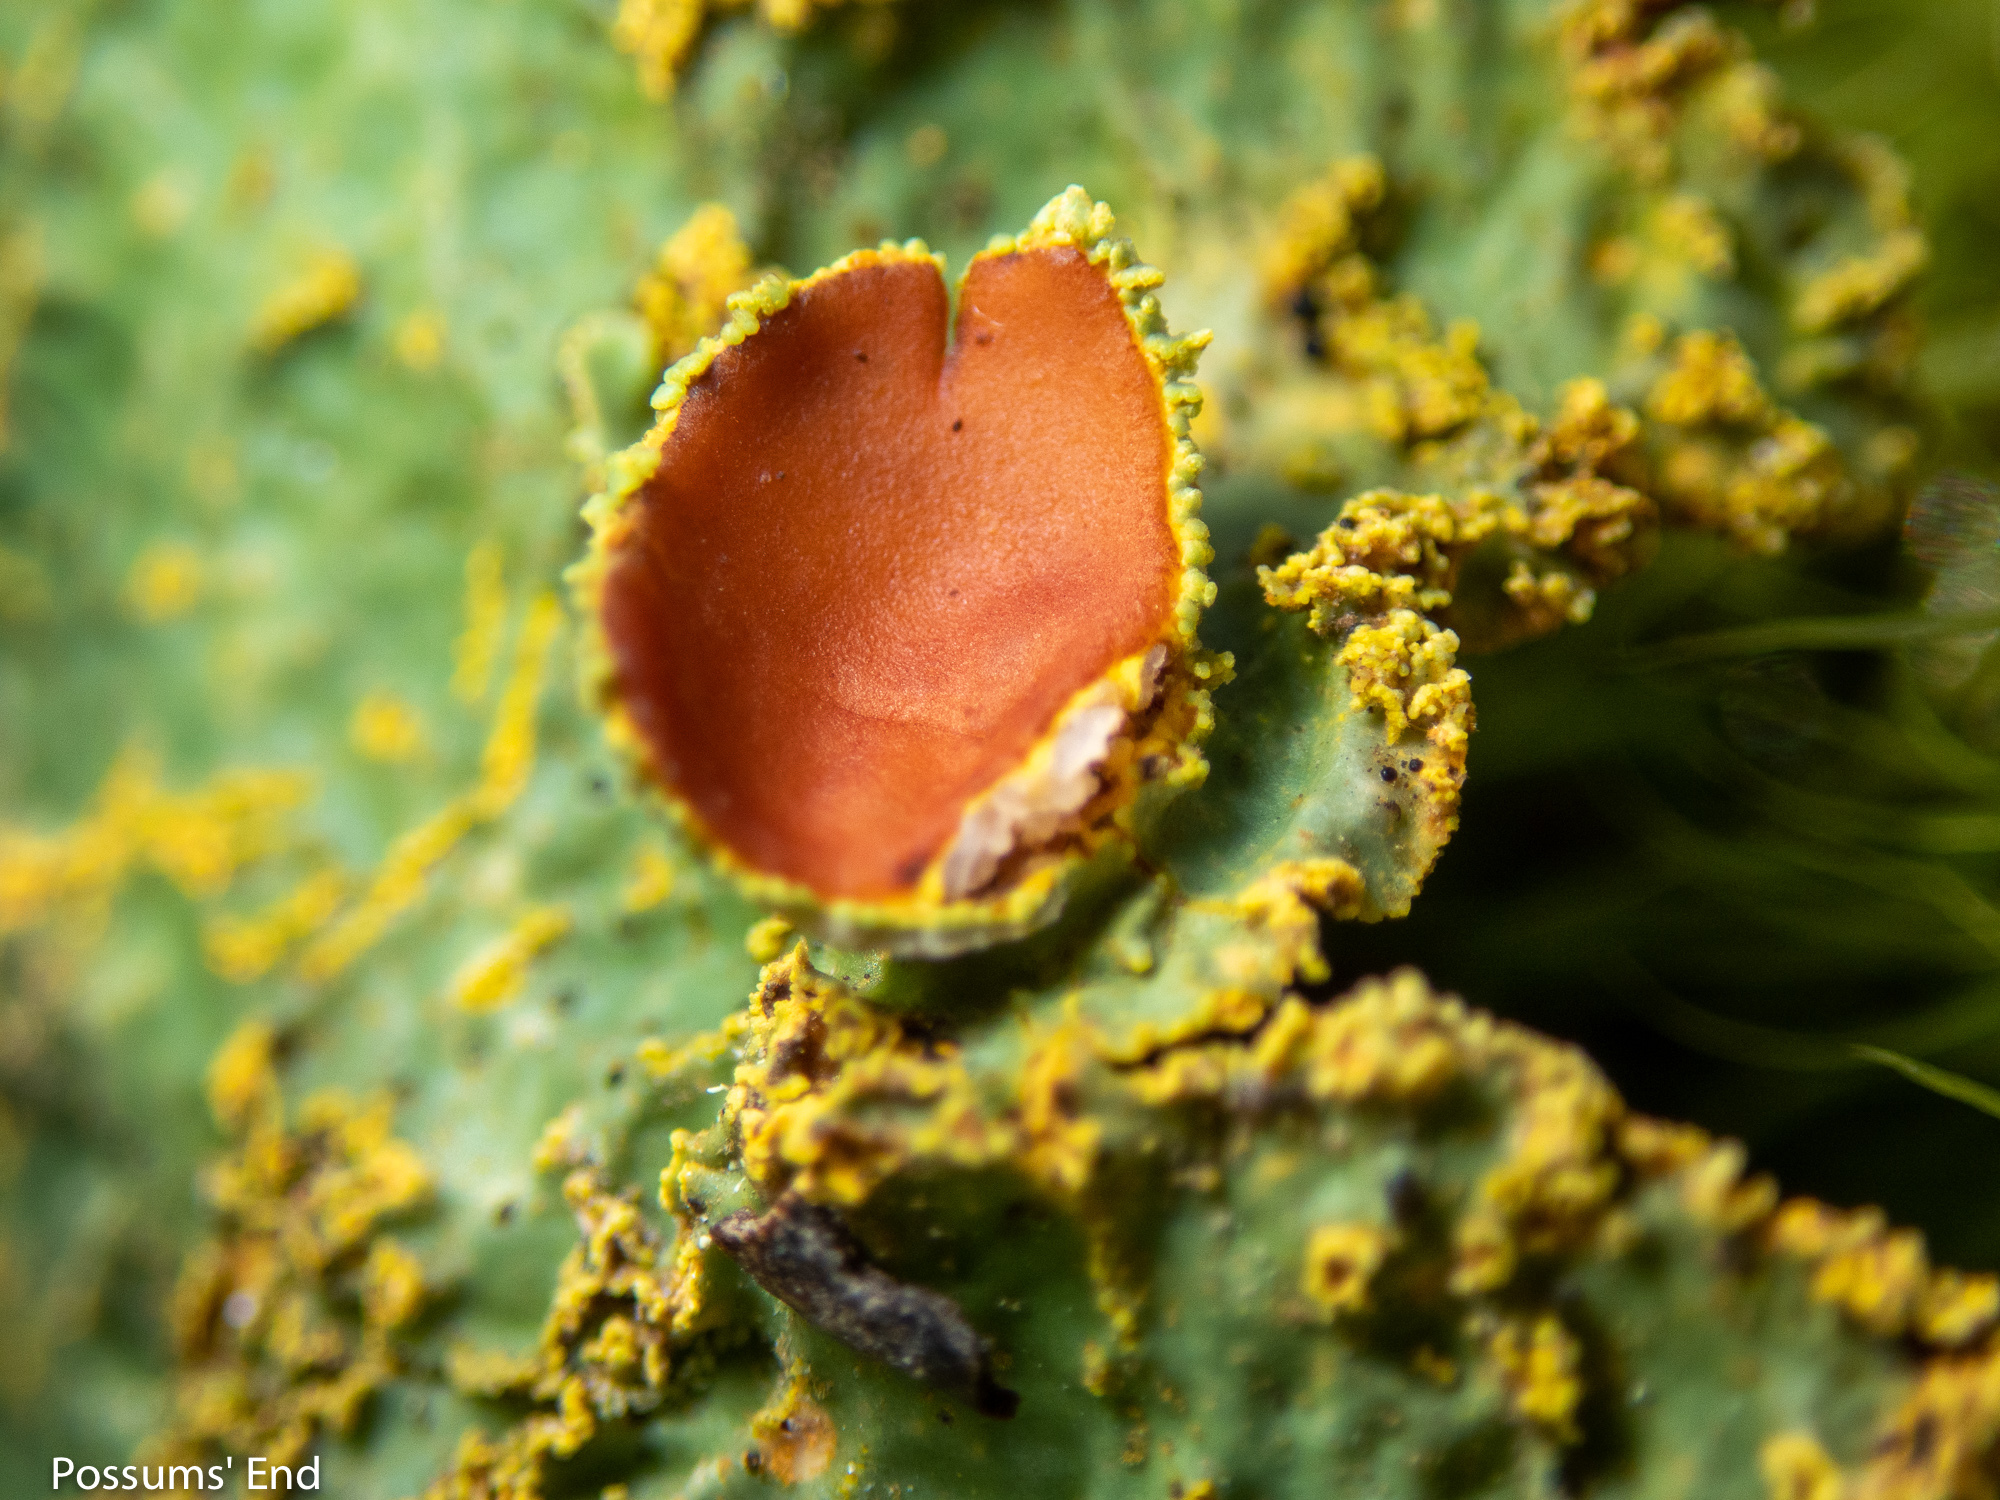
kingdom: Fungi
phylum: Ascomycota
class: Lecanoromycetes
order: Peltigerales
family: Lobariaceae
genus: Yarrumia
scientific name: Yarrumia colensoi
